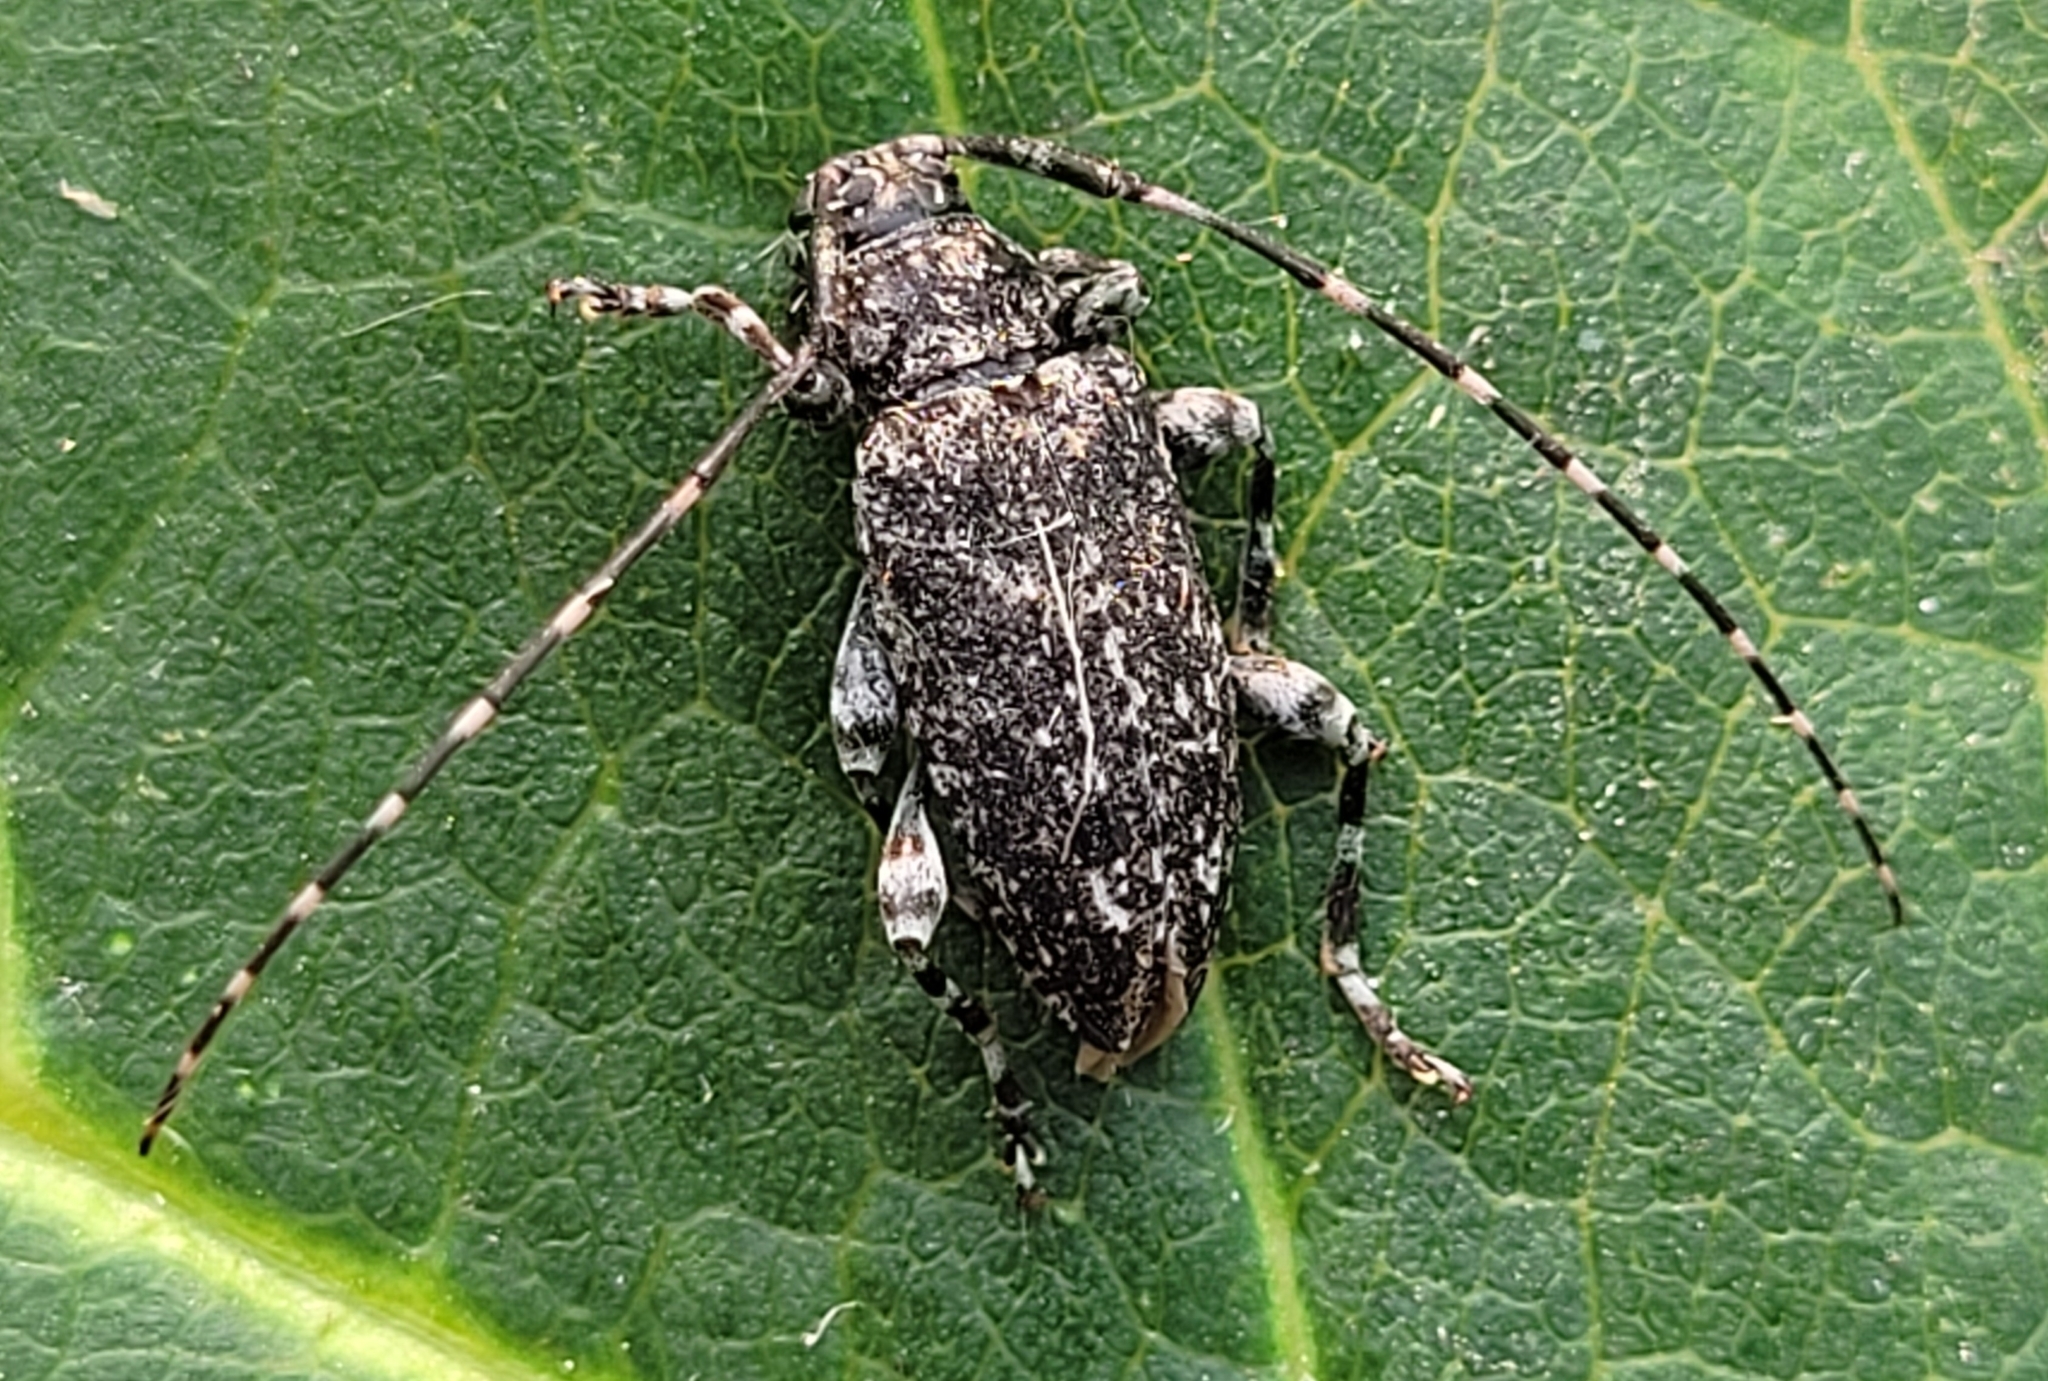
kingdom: Animalia
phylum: Arthropoda
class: Insecta
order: Coleoptera
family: Cerambycidae
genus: Oplosia
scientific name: Oplosia nubila
